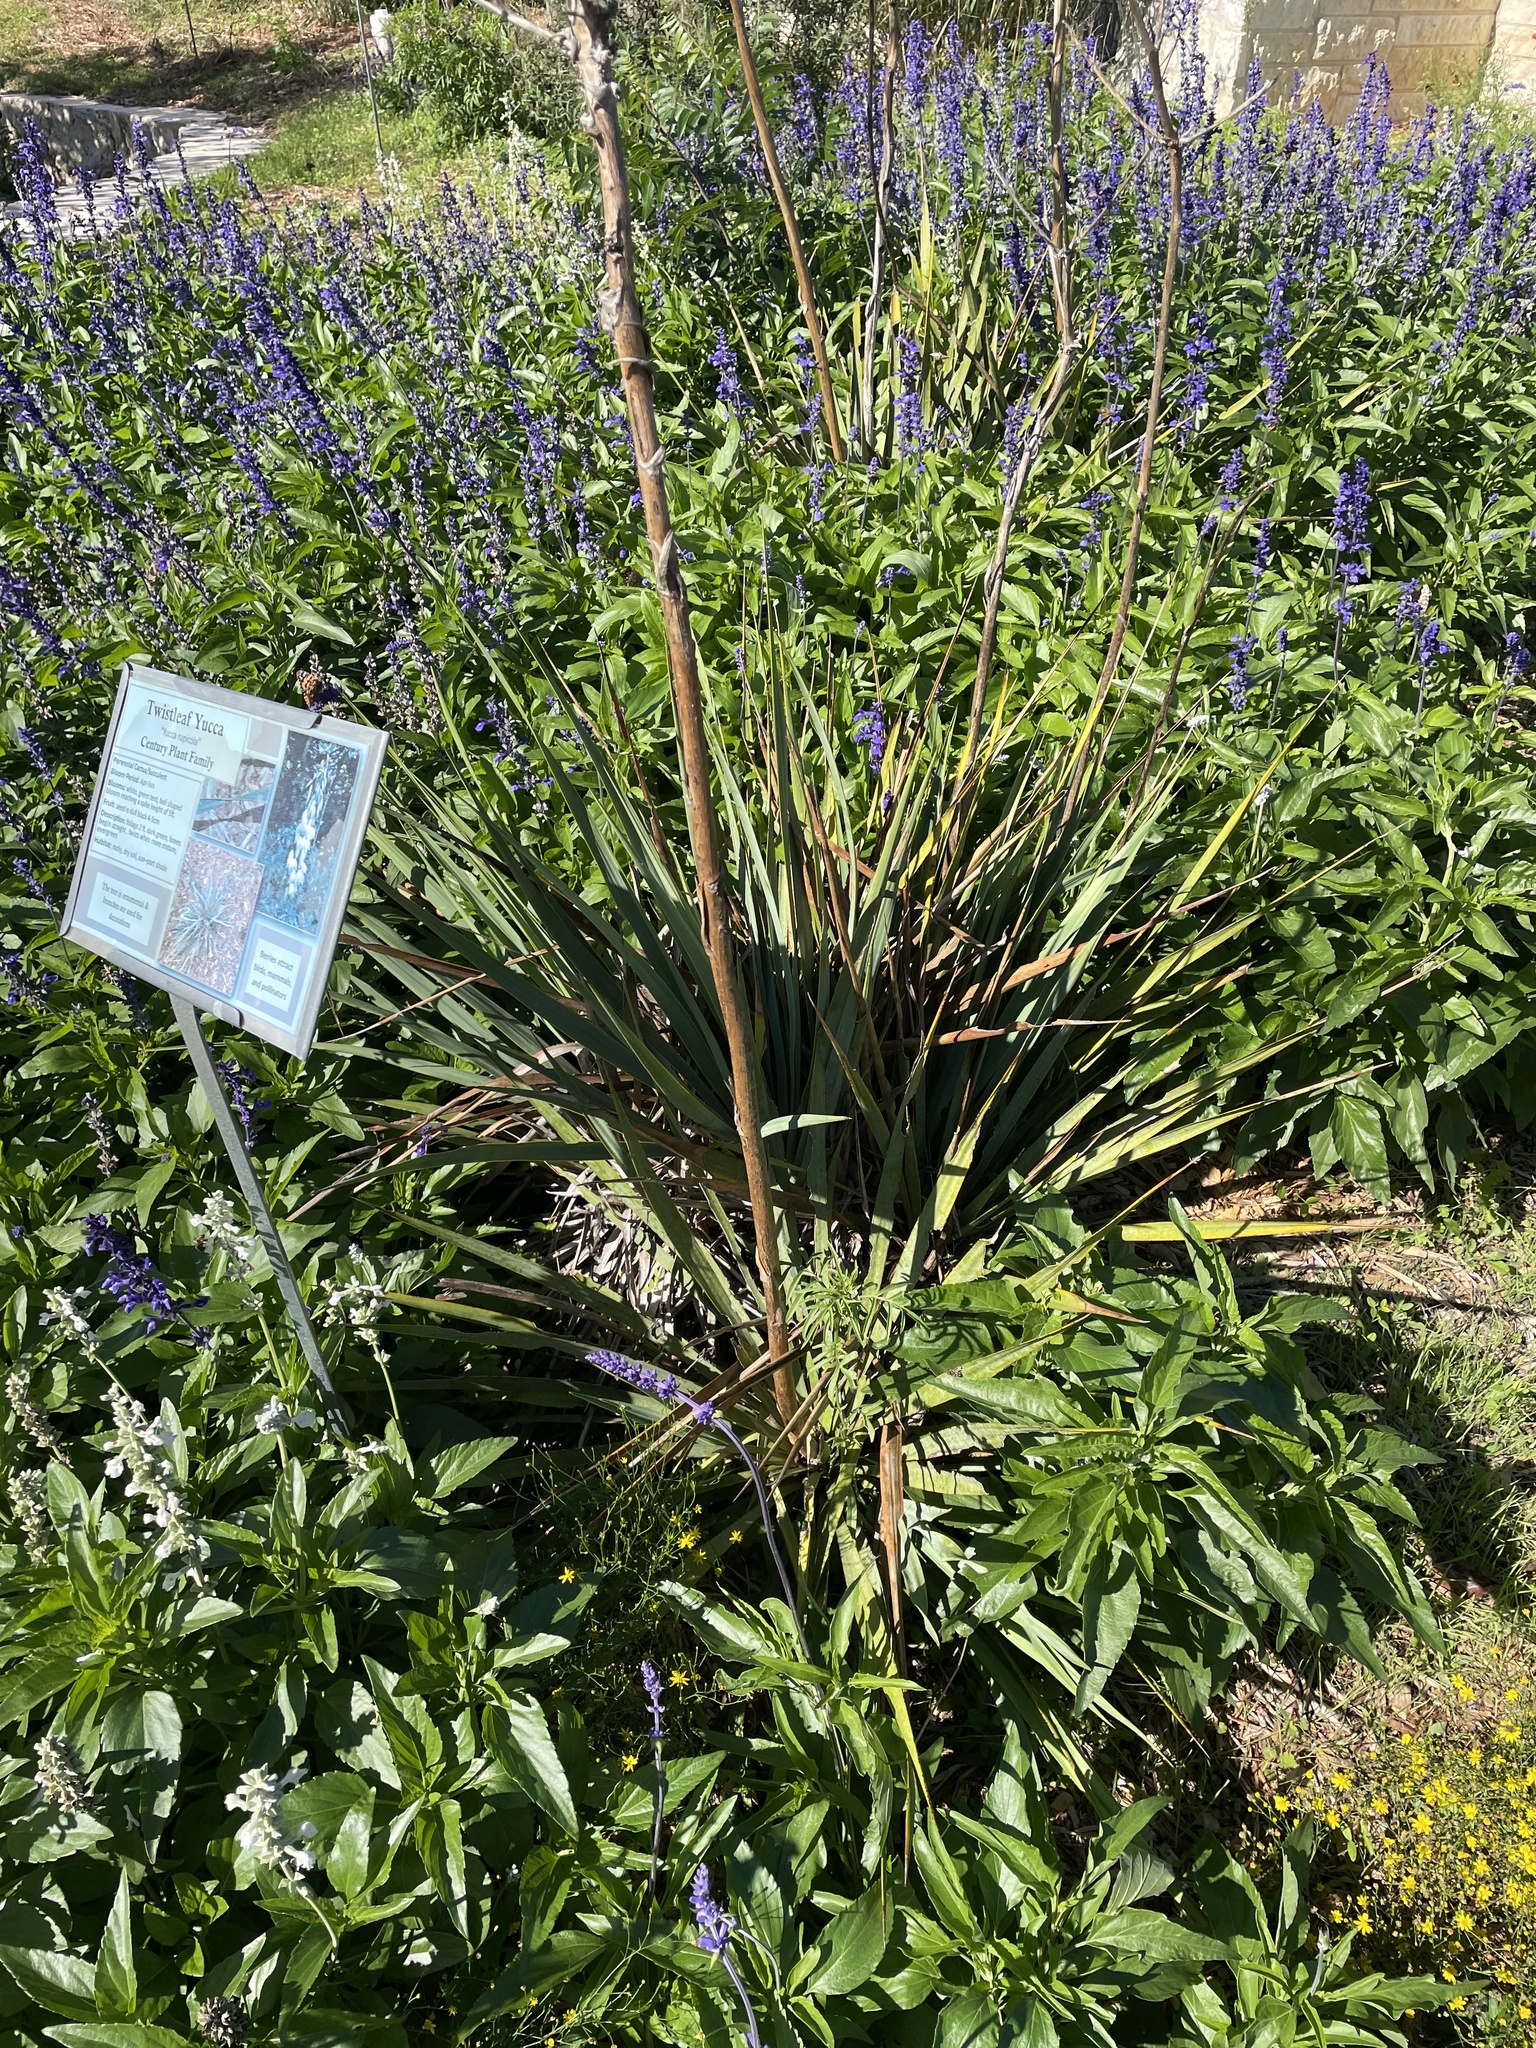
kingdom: Plantae
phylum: Tracheophyta
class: Liliopsida
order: Asparagales
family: Asparagaceae
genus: Yucca
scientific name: Yucca rupicola
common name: Twisted-leaf spanish-dagger
